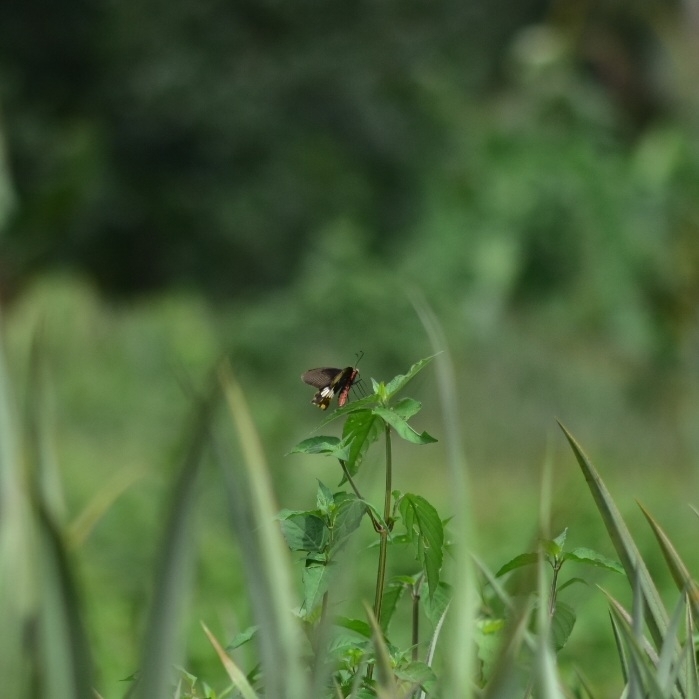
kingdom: Animalia
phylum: Arthropoda
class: Insecta
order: Lepidoptera
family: Papilionidae
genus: Pachliopta
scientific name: Pachliopta aristolochiae
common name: Common rose
